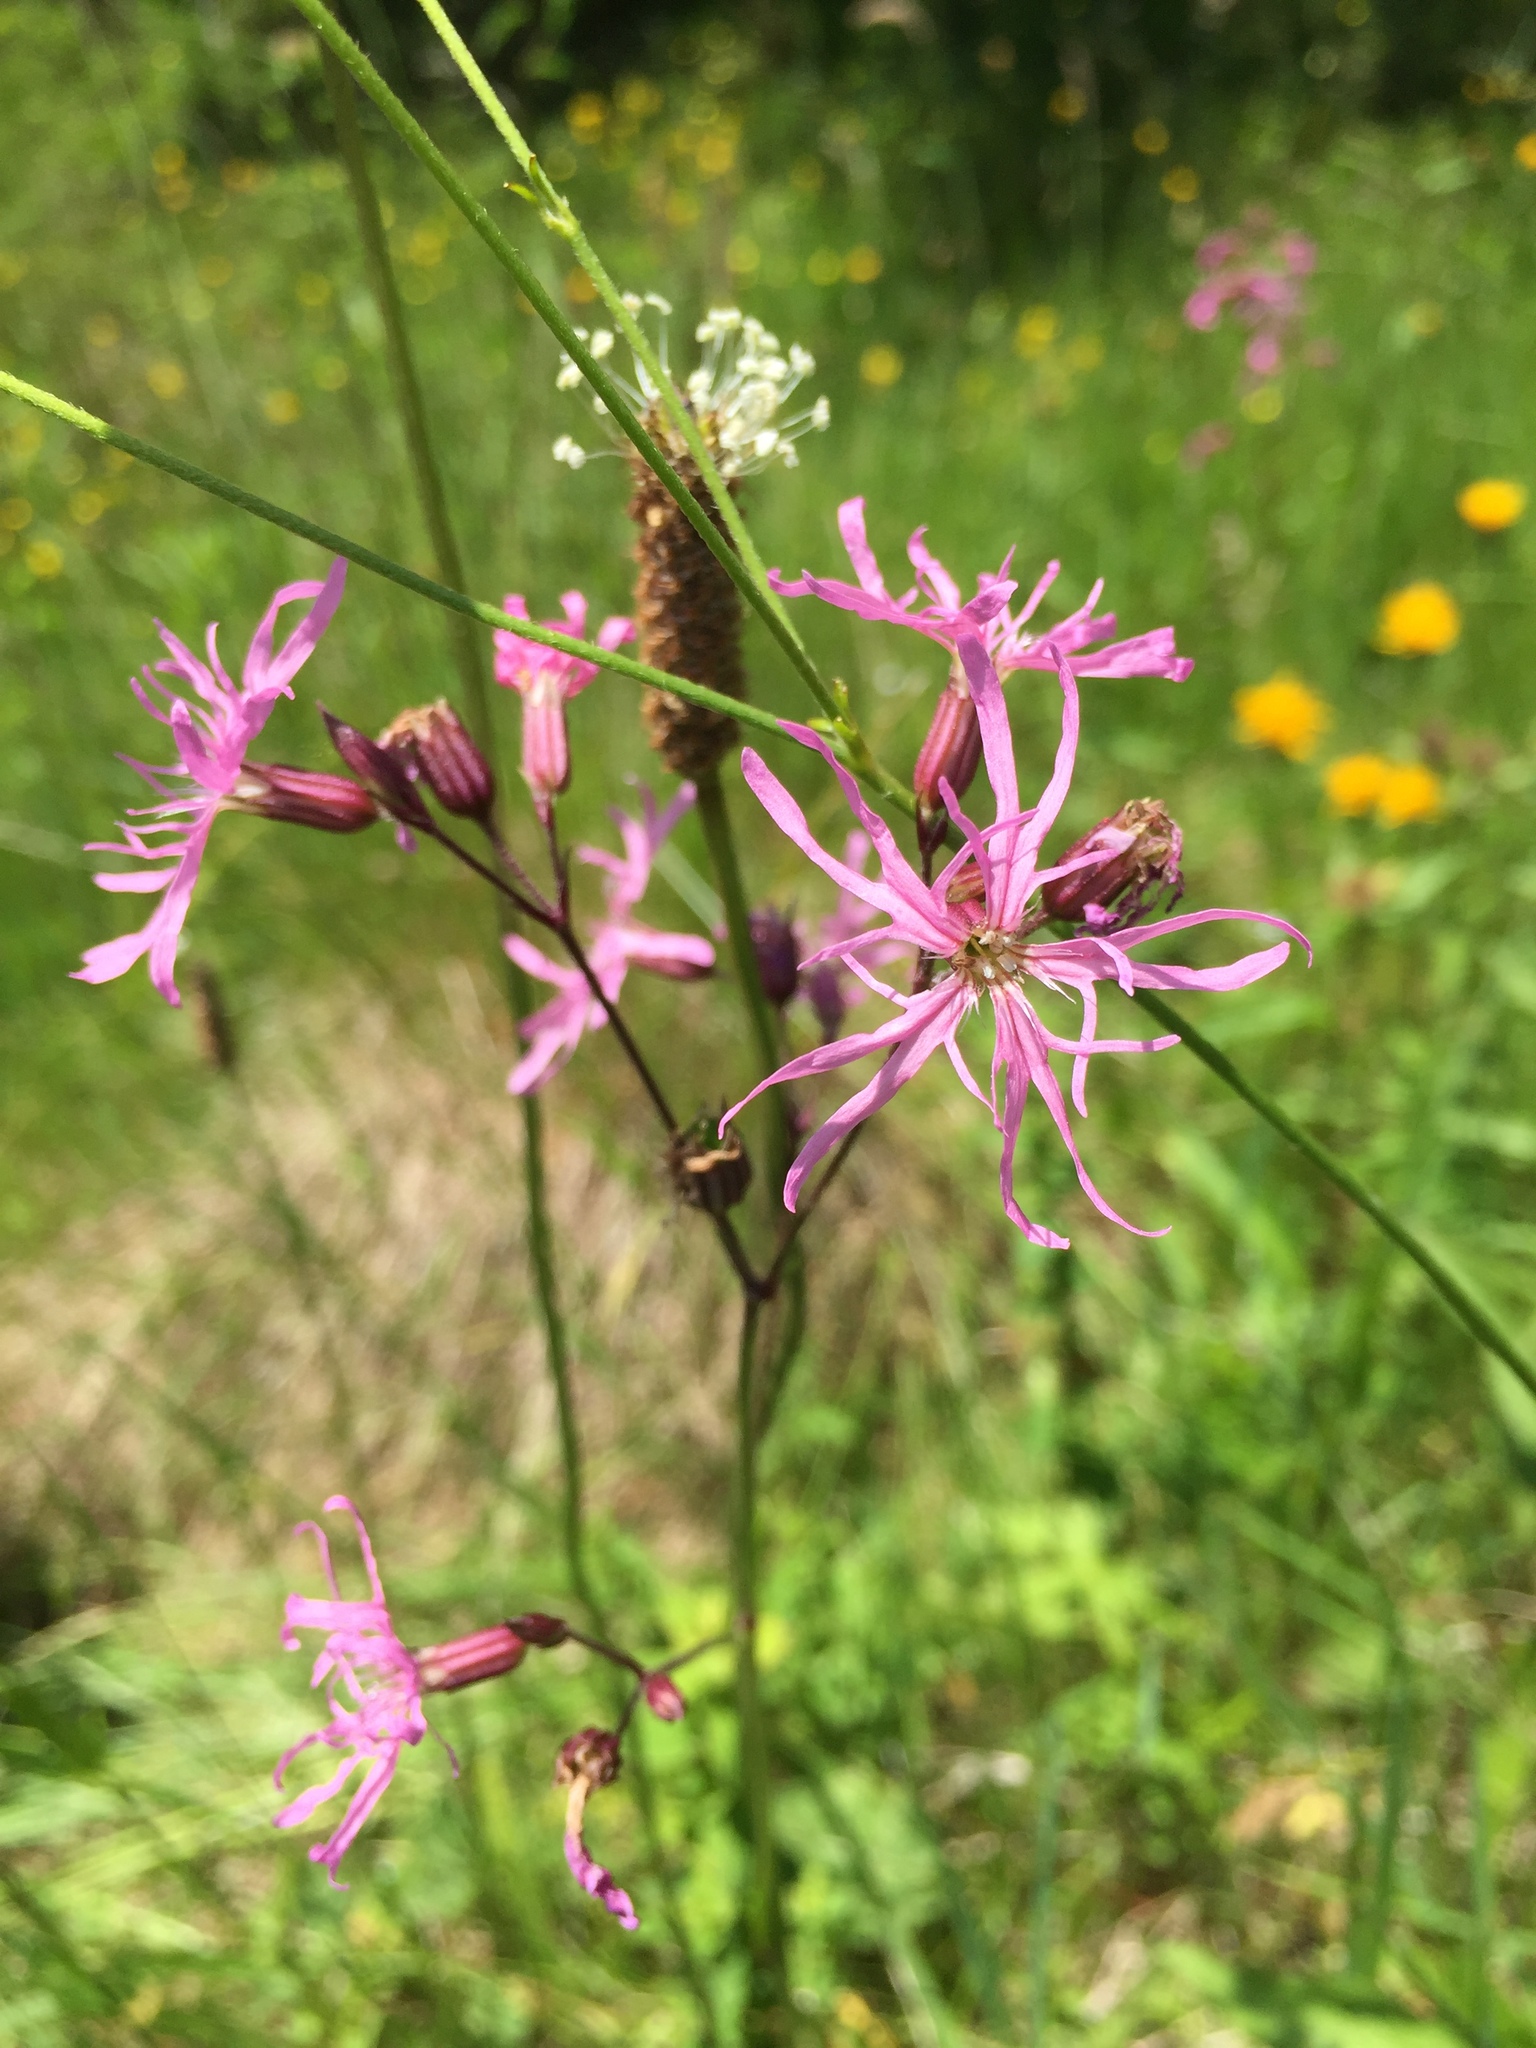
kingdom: Plantae
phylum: Tracheophyta
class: Magnoliopsida
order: Caryophyllales
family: Caryophyllaceae
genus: Silene
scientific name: Silene flos-cuculi
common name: Ragged-robin
